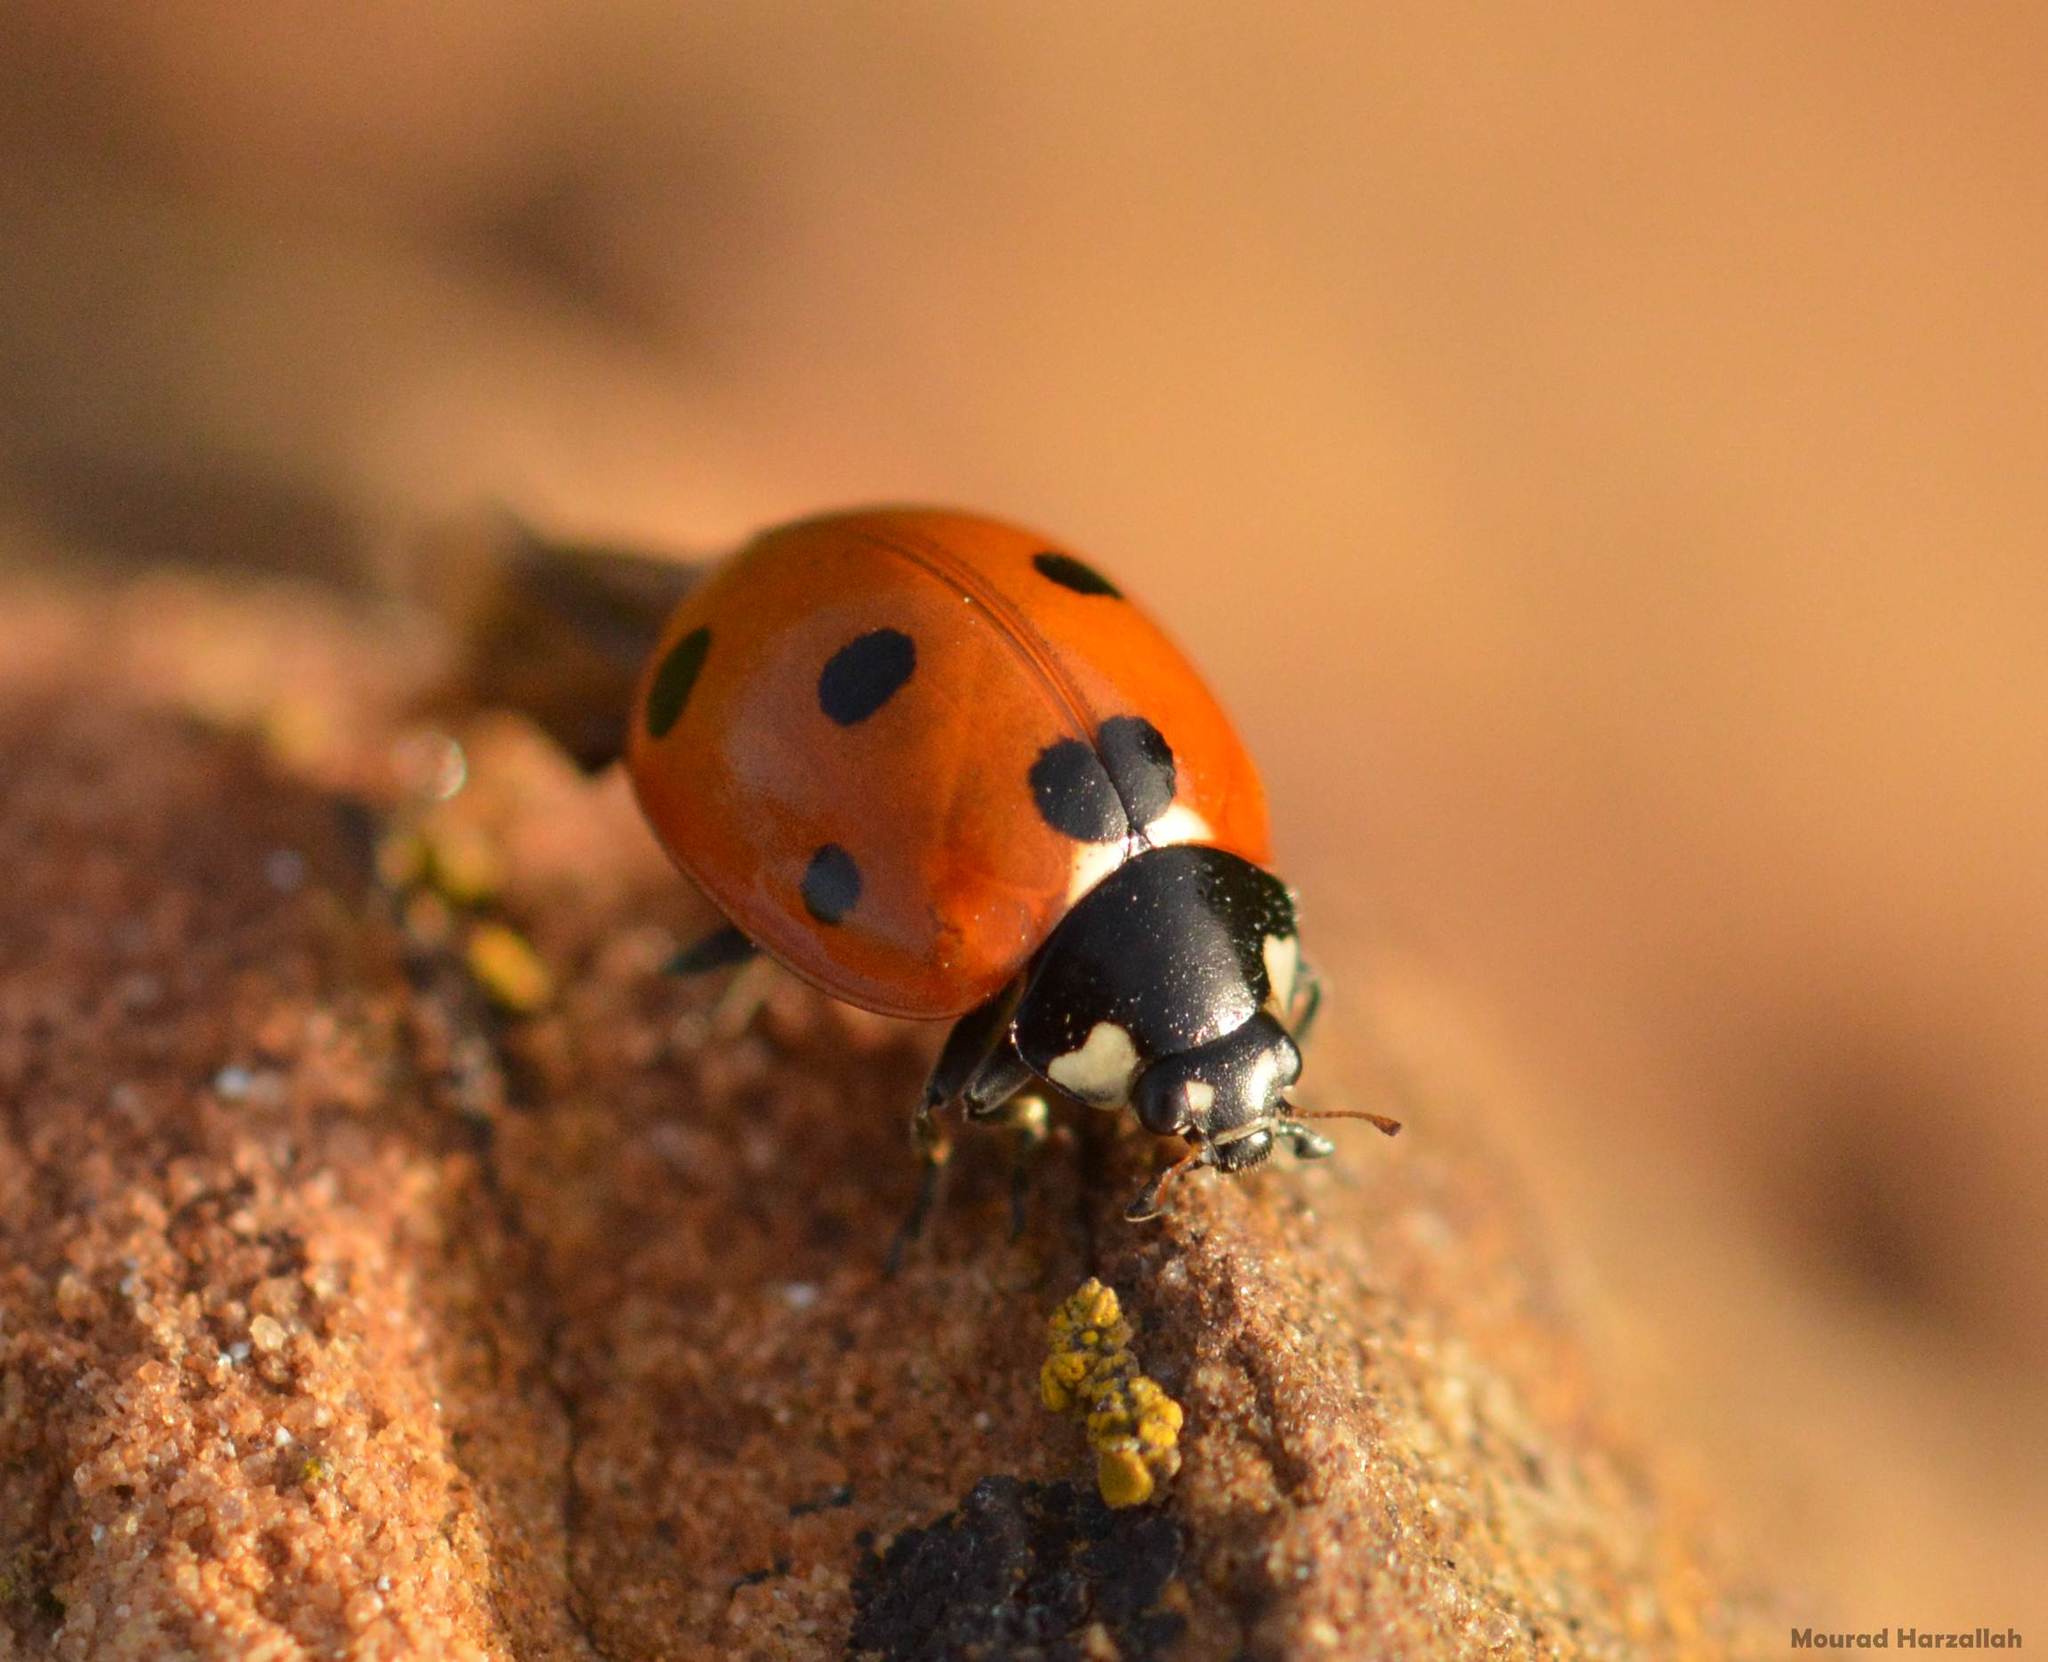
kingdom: Animalia
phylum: Arthropoda
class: Insecta
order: Coleoptera
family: Coccinellidae
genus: Coccinella
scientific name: Coccinella algerica
